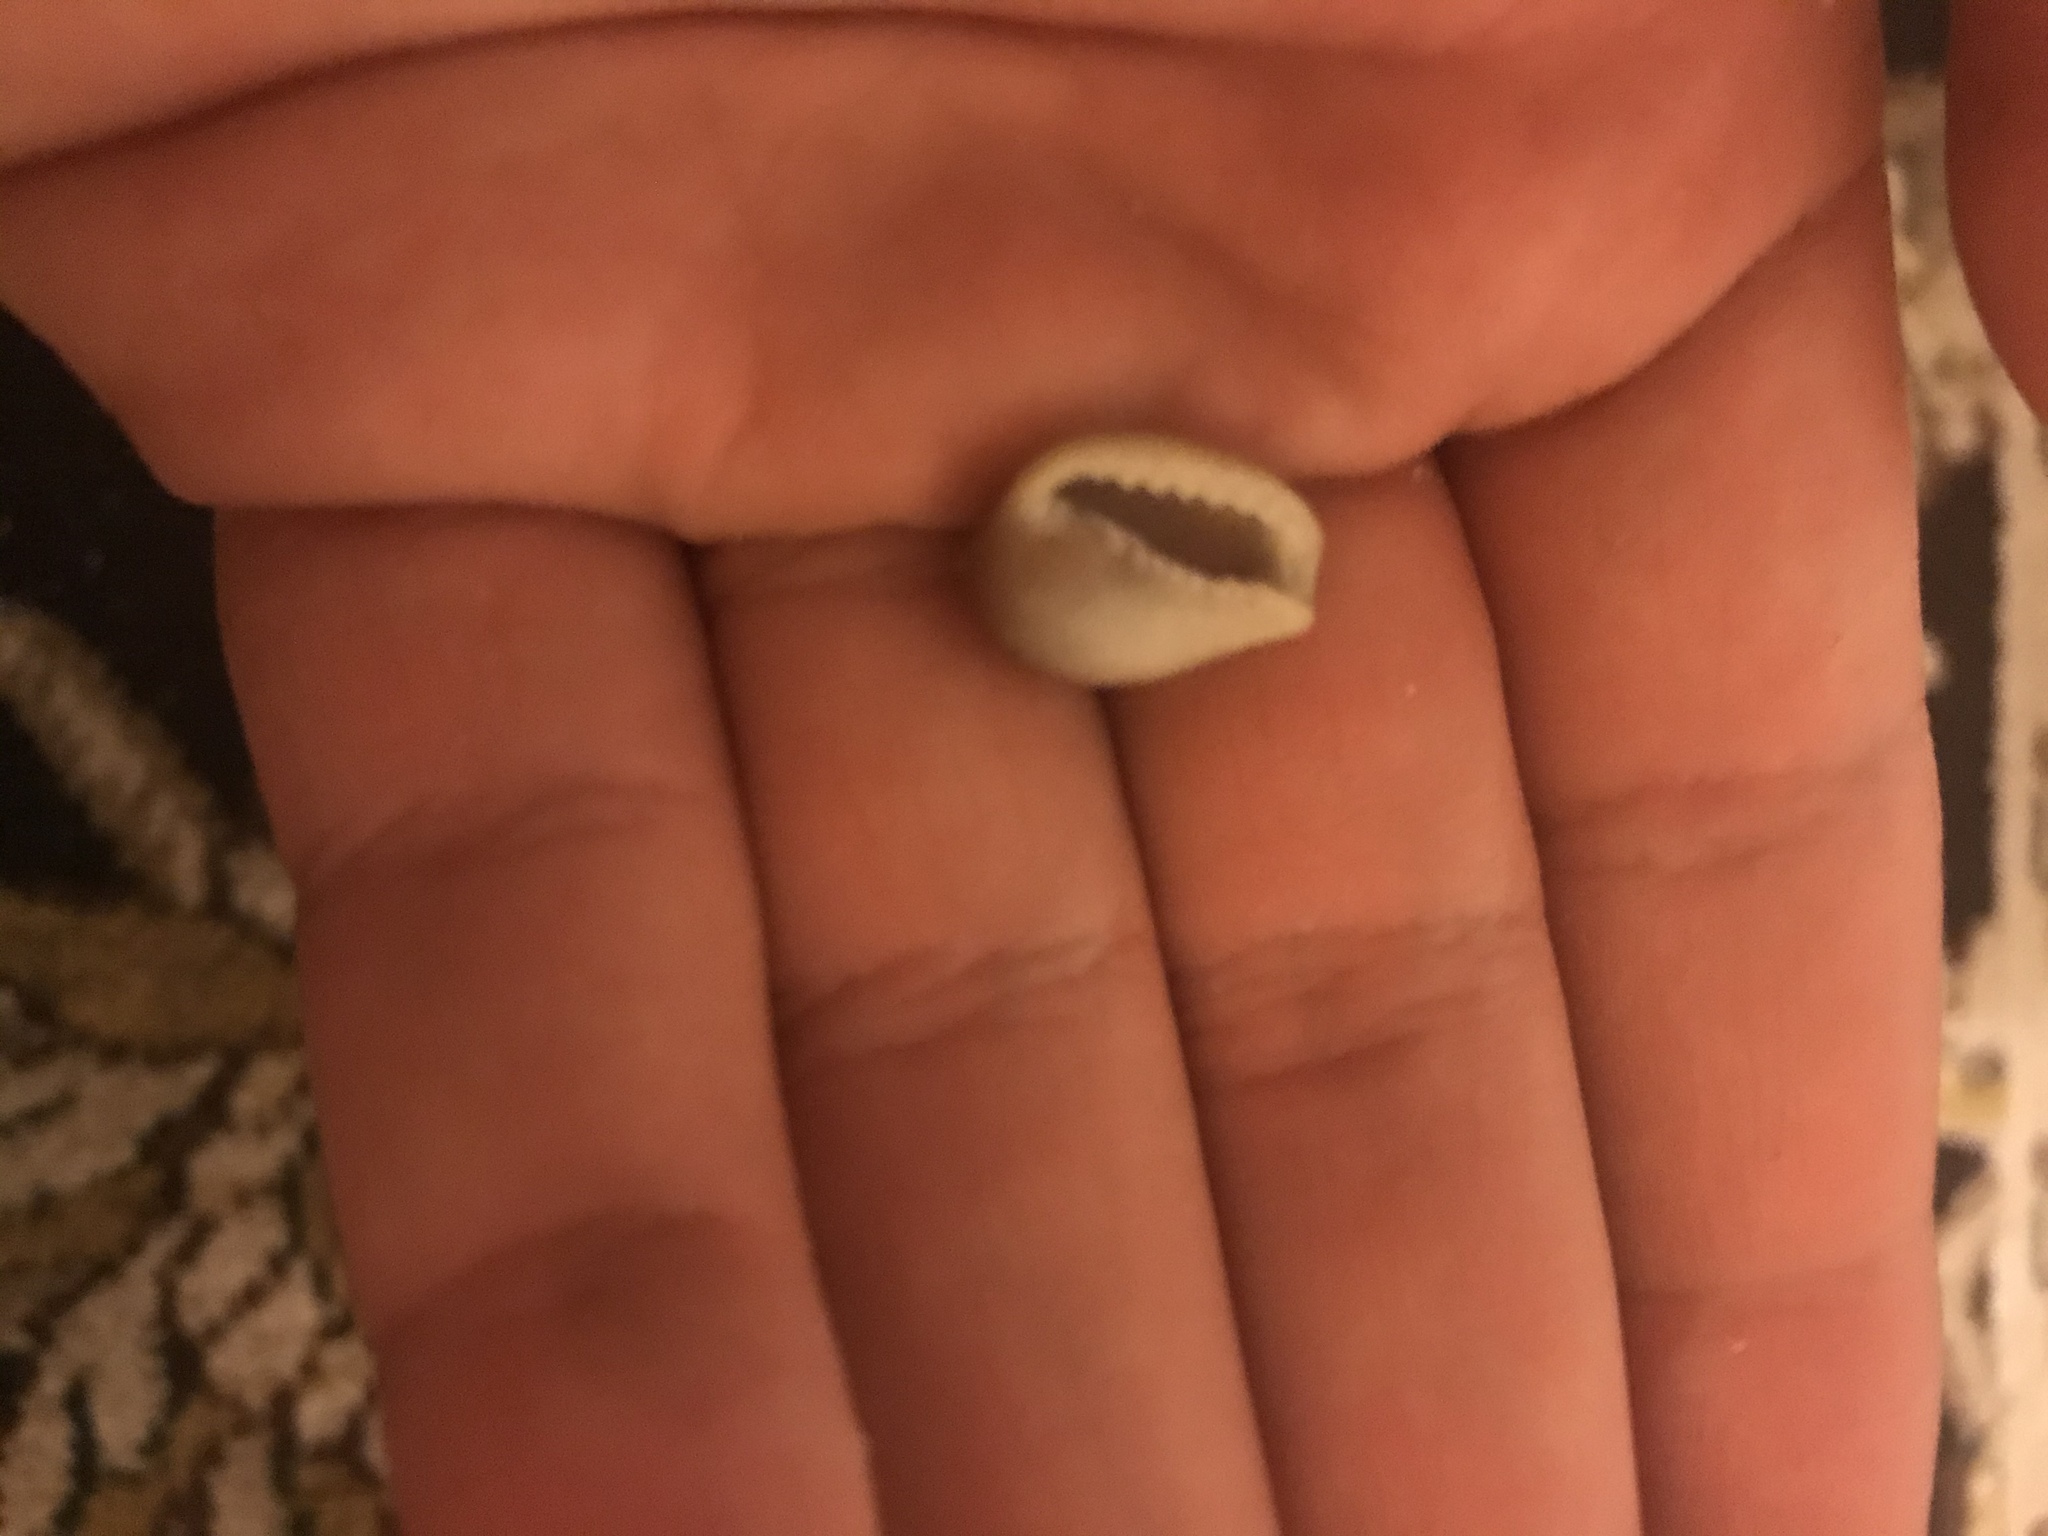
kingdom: Animalia
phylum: Mollusca
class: Gastropoda
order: Littorinimorpha
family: Eratoidae
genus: Hespererato
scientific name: Hespererato vitellina
